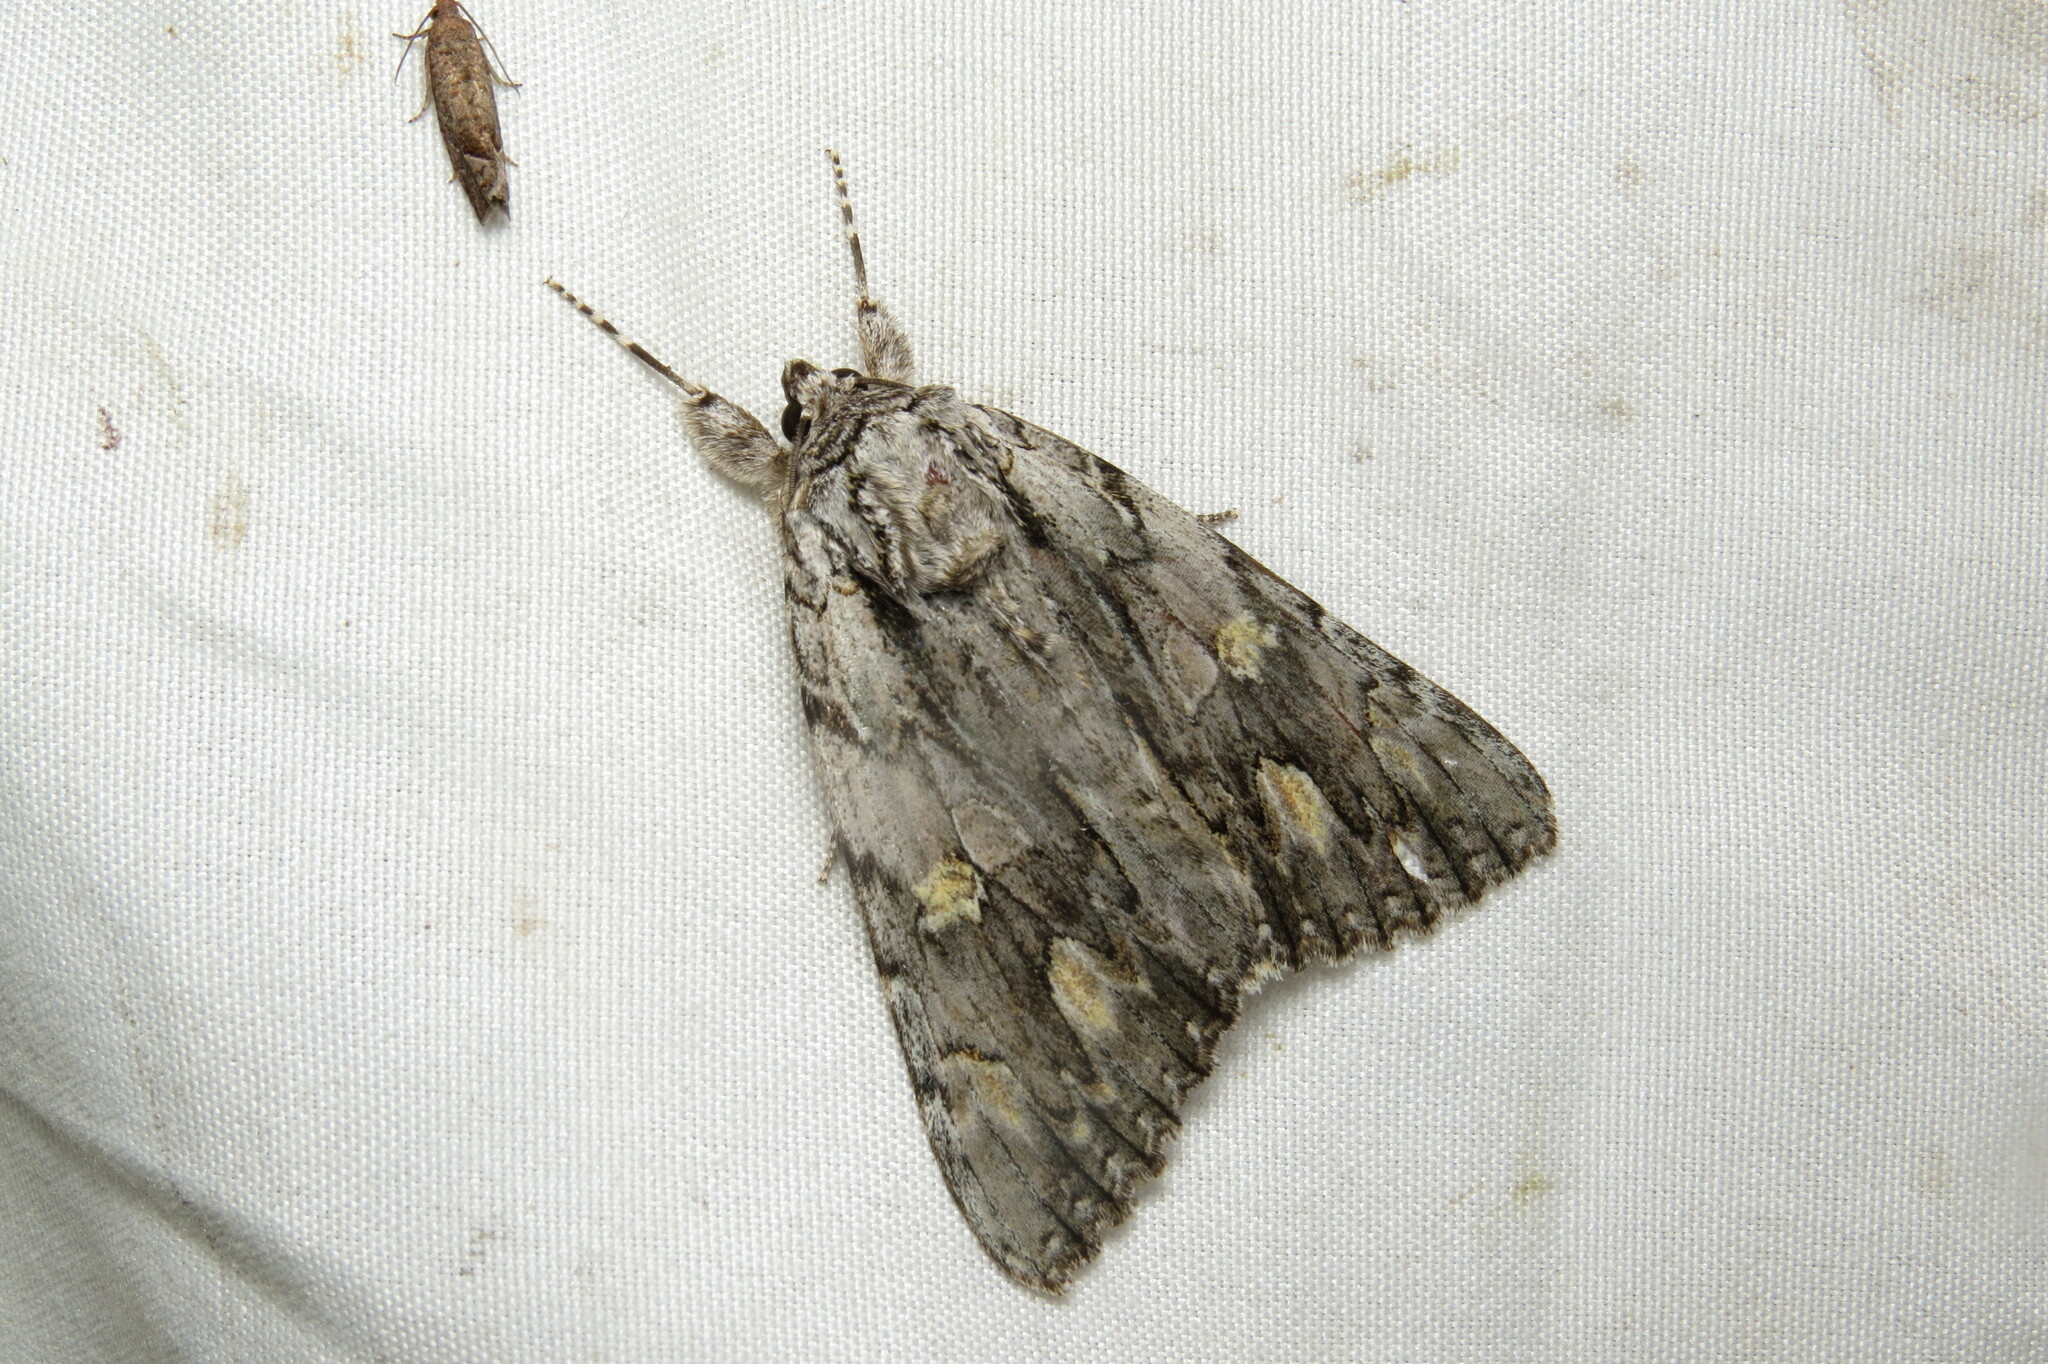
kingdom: Animalia
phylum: Arthropoda
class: Insecta
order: Lepidoptera
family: Erebidae
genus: Catocala
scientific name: Catocala coccinata
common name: Scarlet underwing
